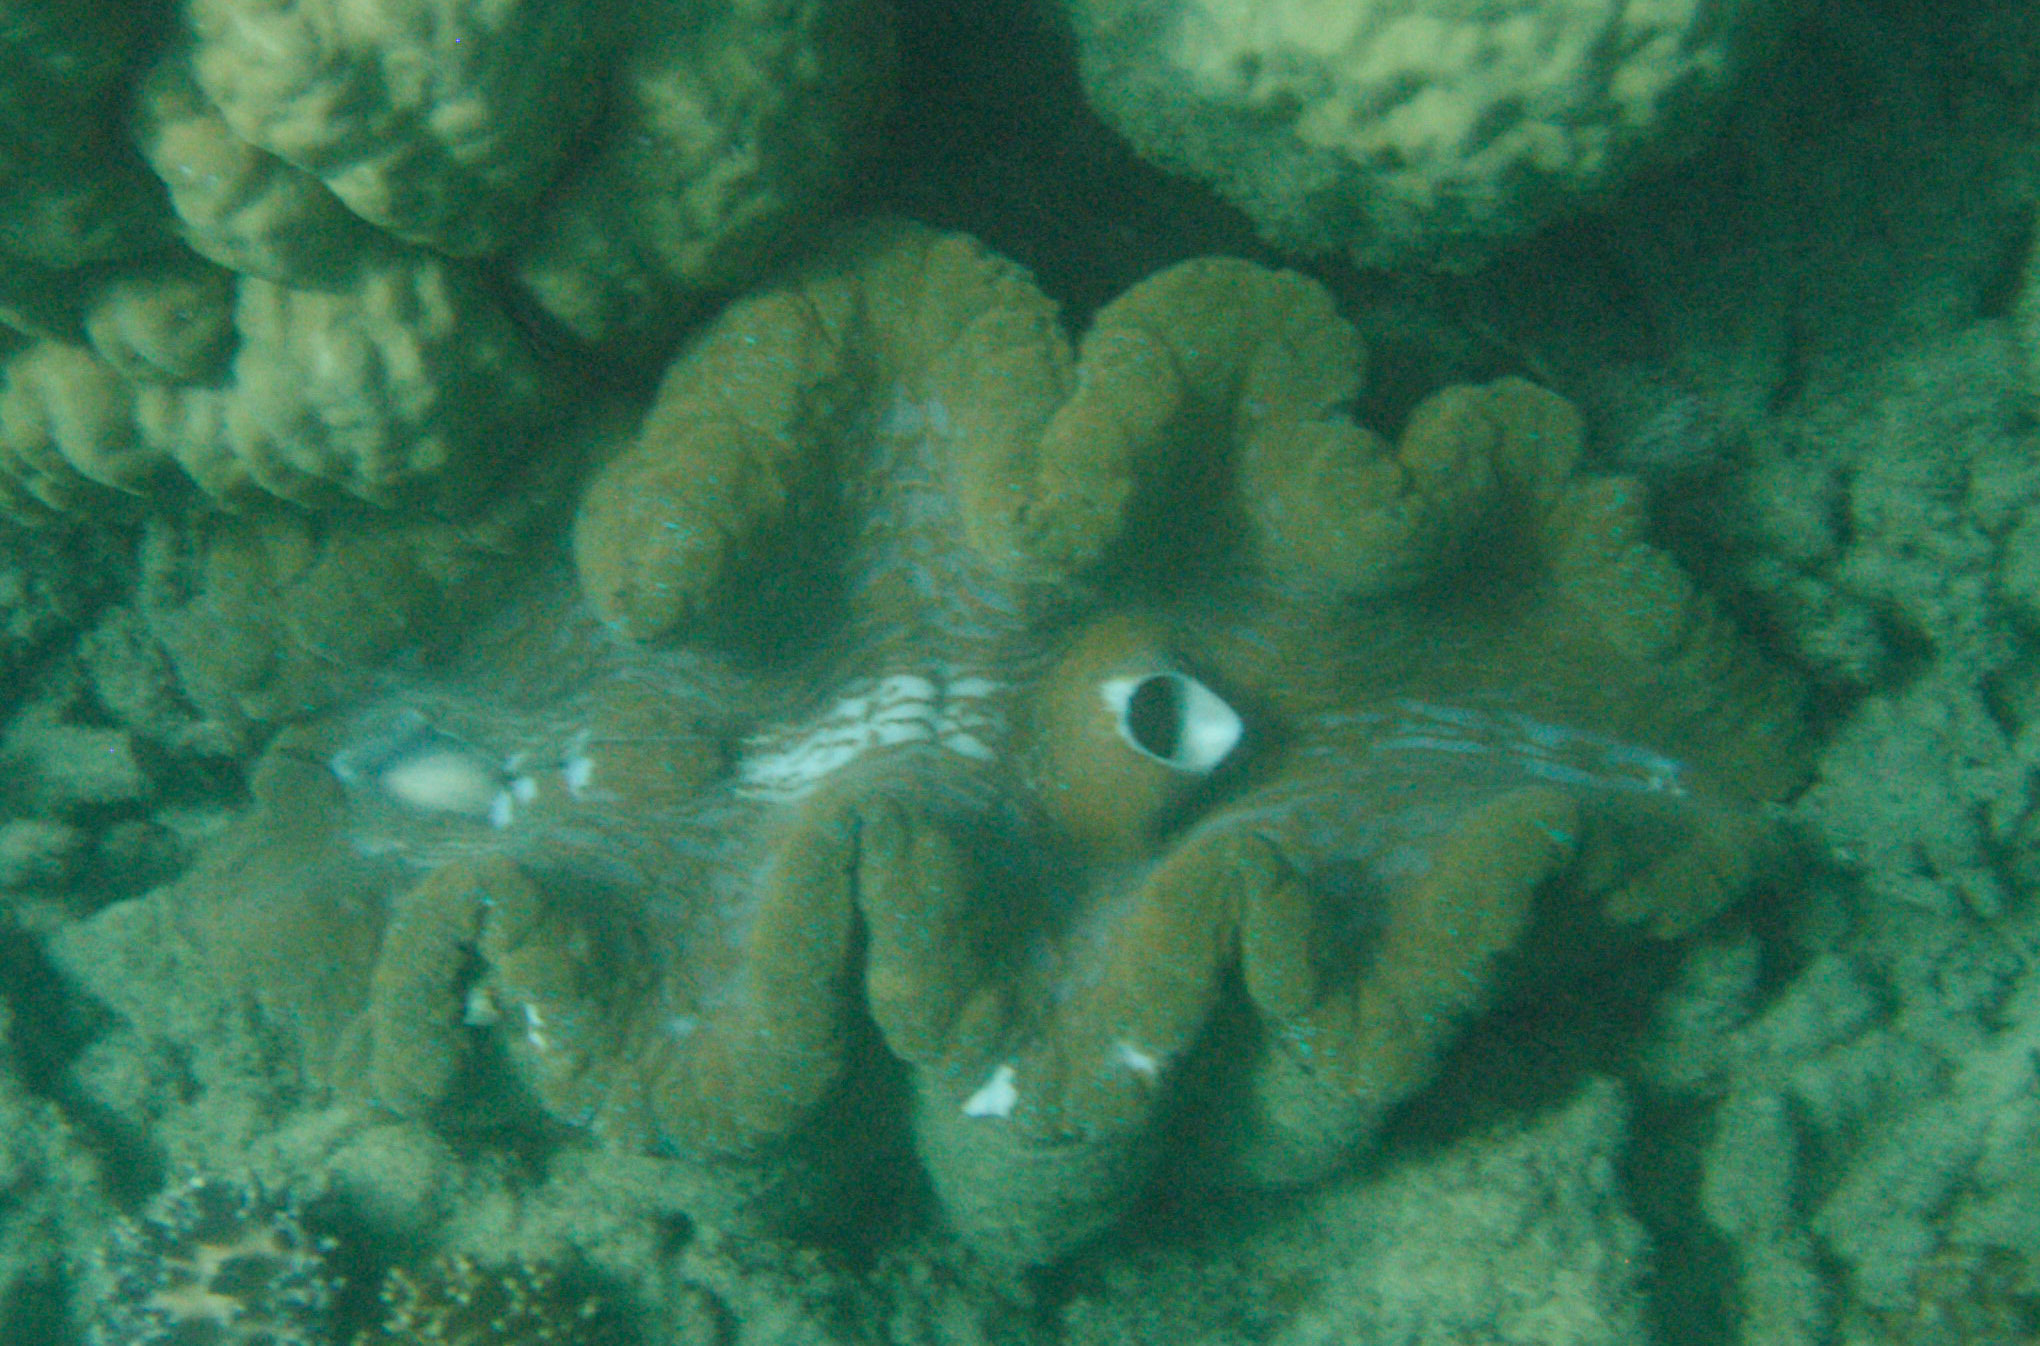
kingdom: Animalia
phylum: Mollusca
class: Bivalvia
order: Cardiida
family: Cardiidae
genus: Tridacna
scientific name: Tridacna gigas
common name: Giant clam
